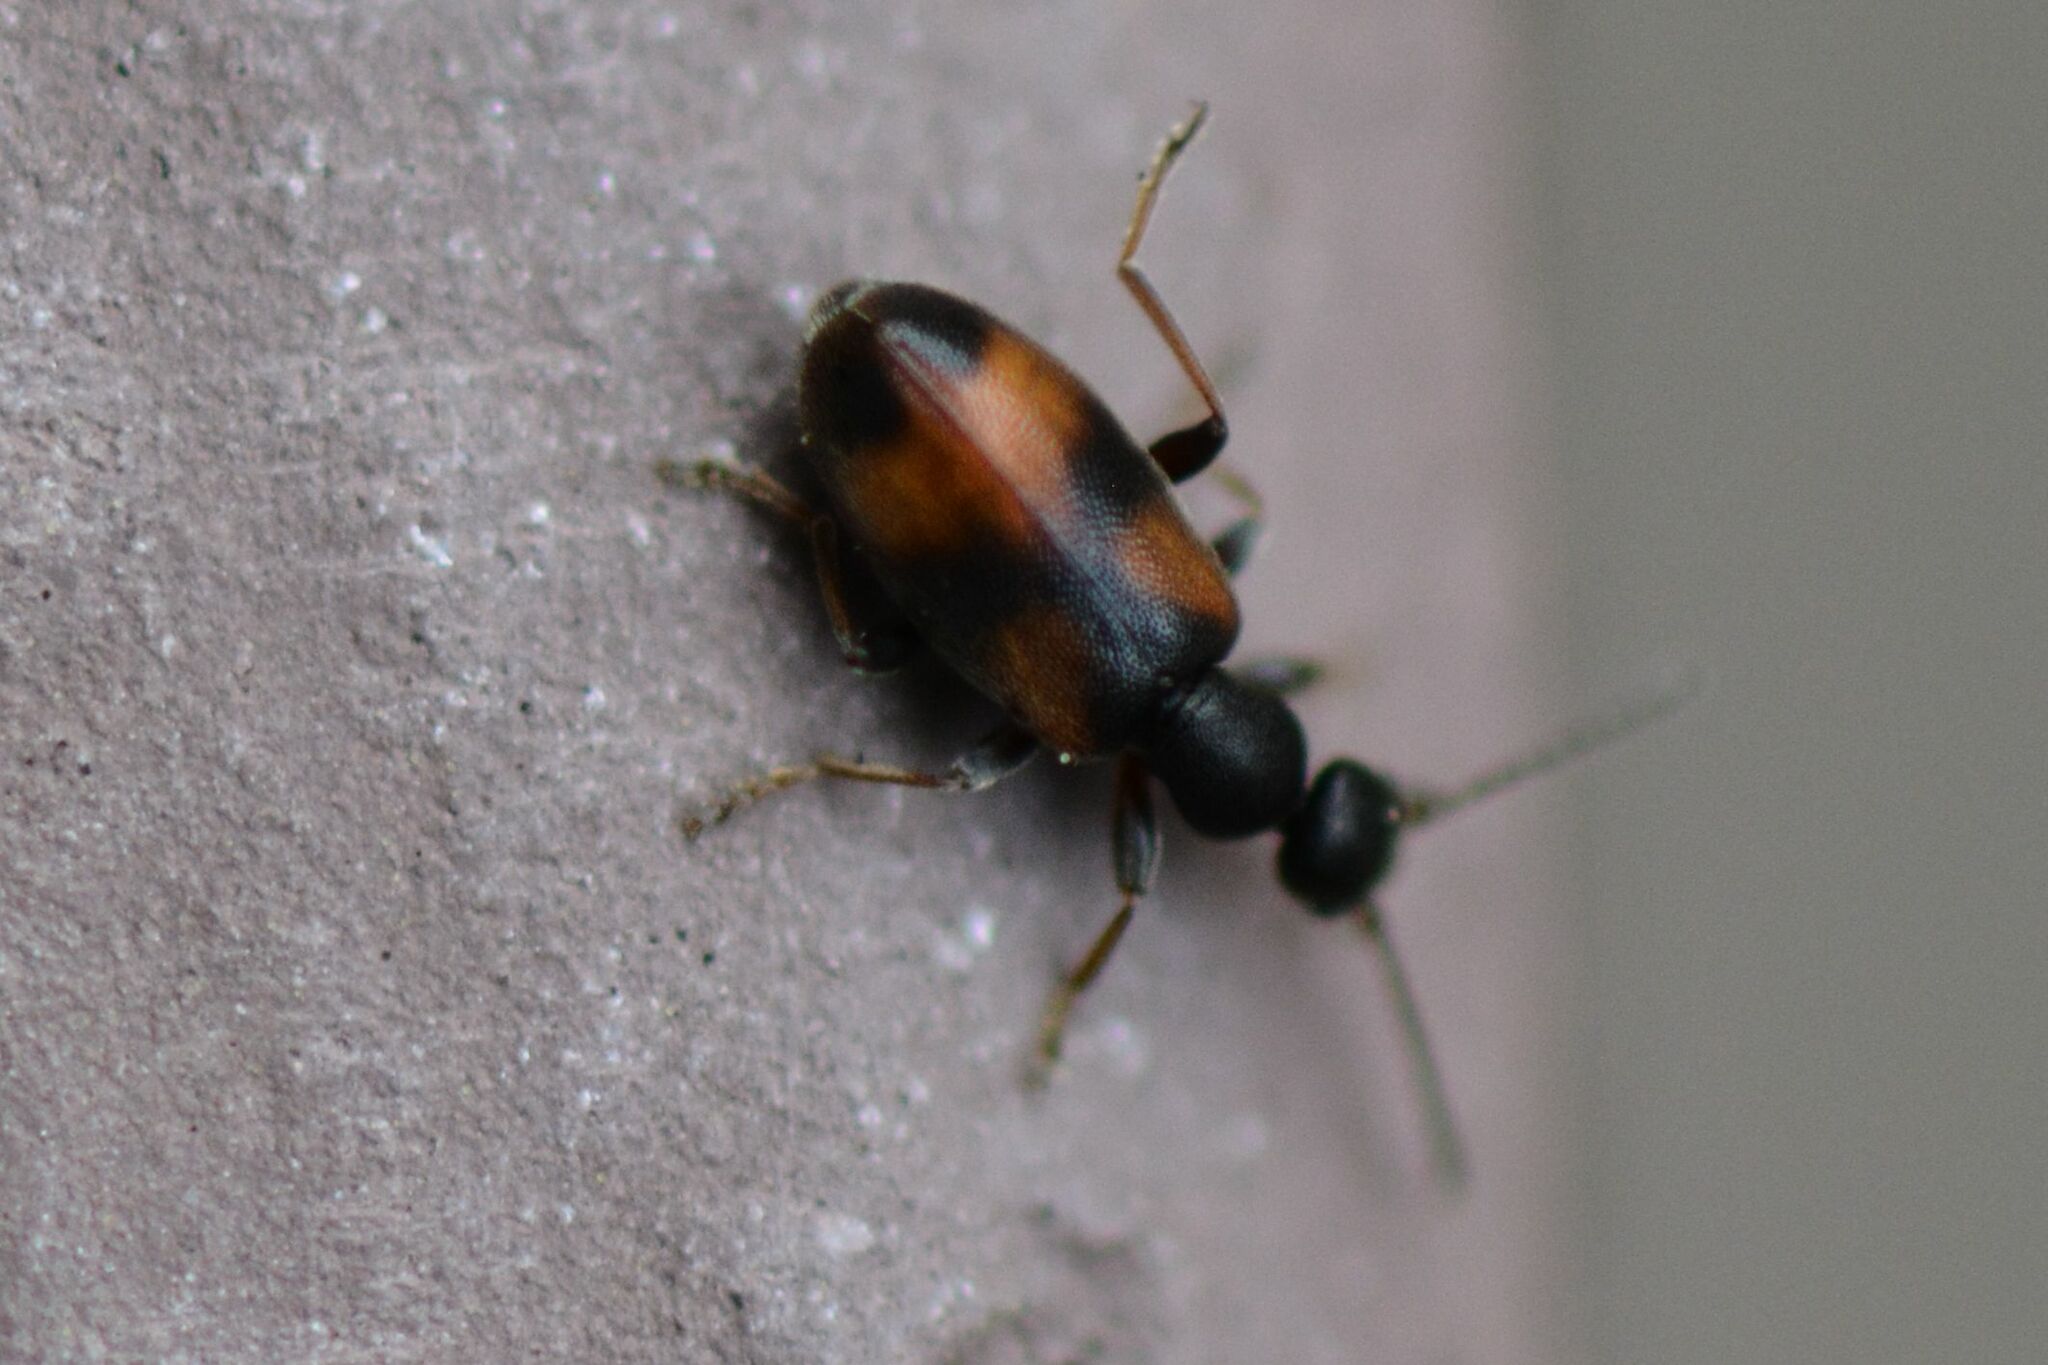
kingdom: Animalia
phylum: Arthropoda
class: Insecta
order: Coleoptera
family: Anthicidae
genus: Anthicus
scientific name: Anthicus antherinus
